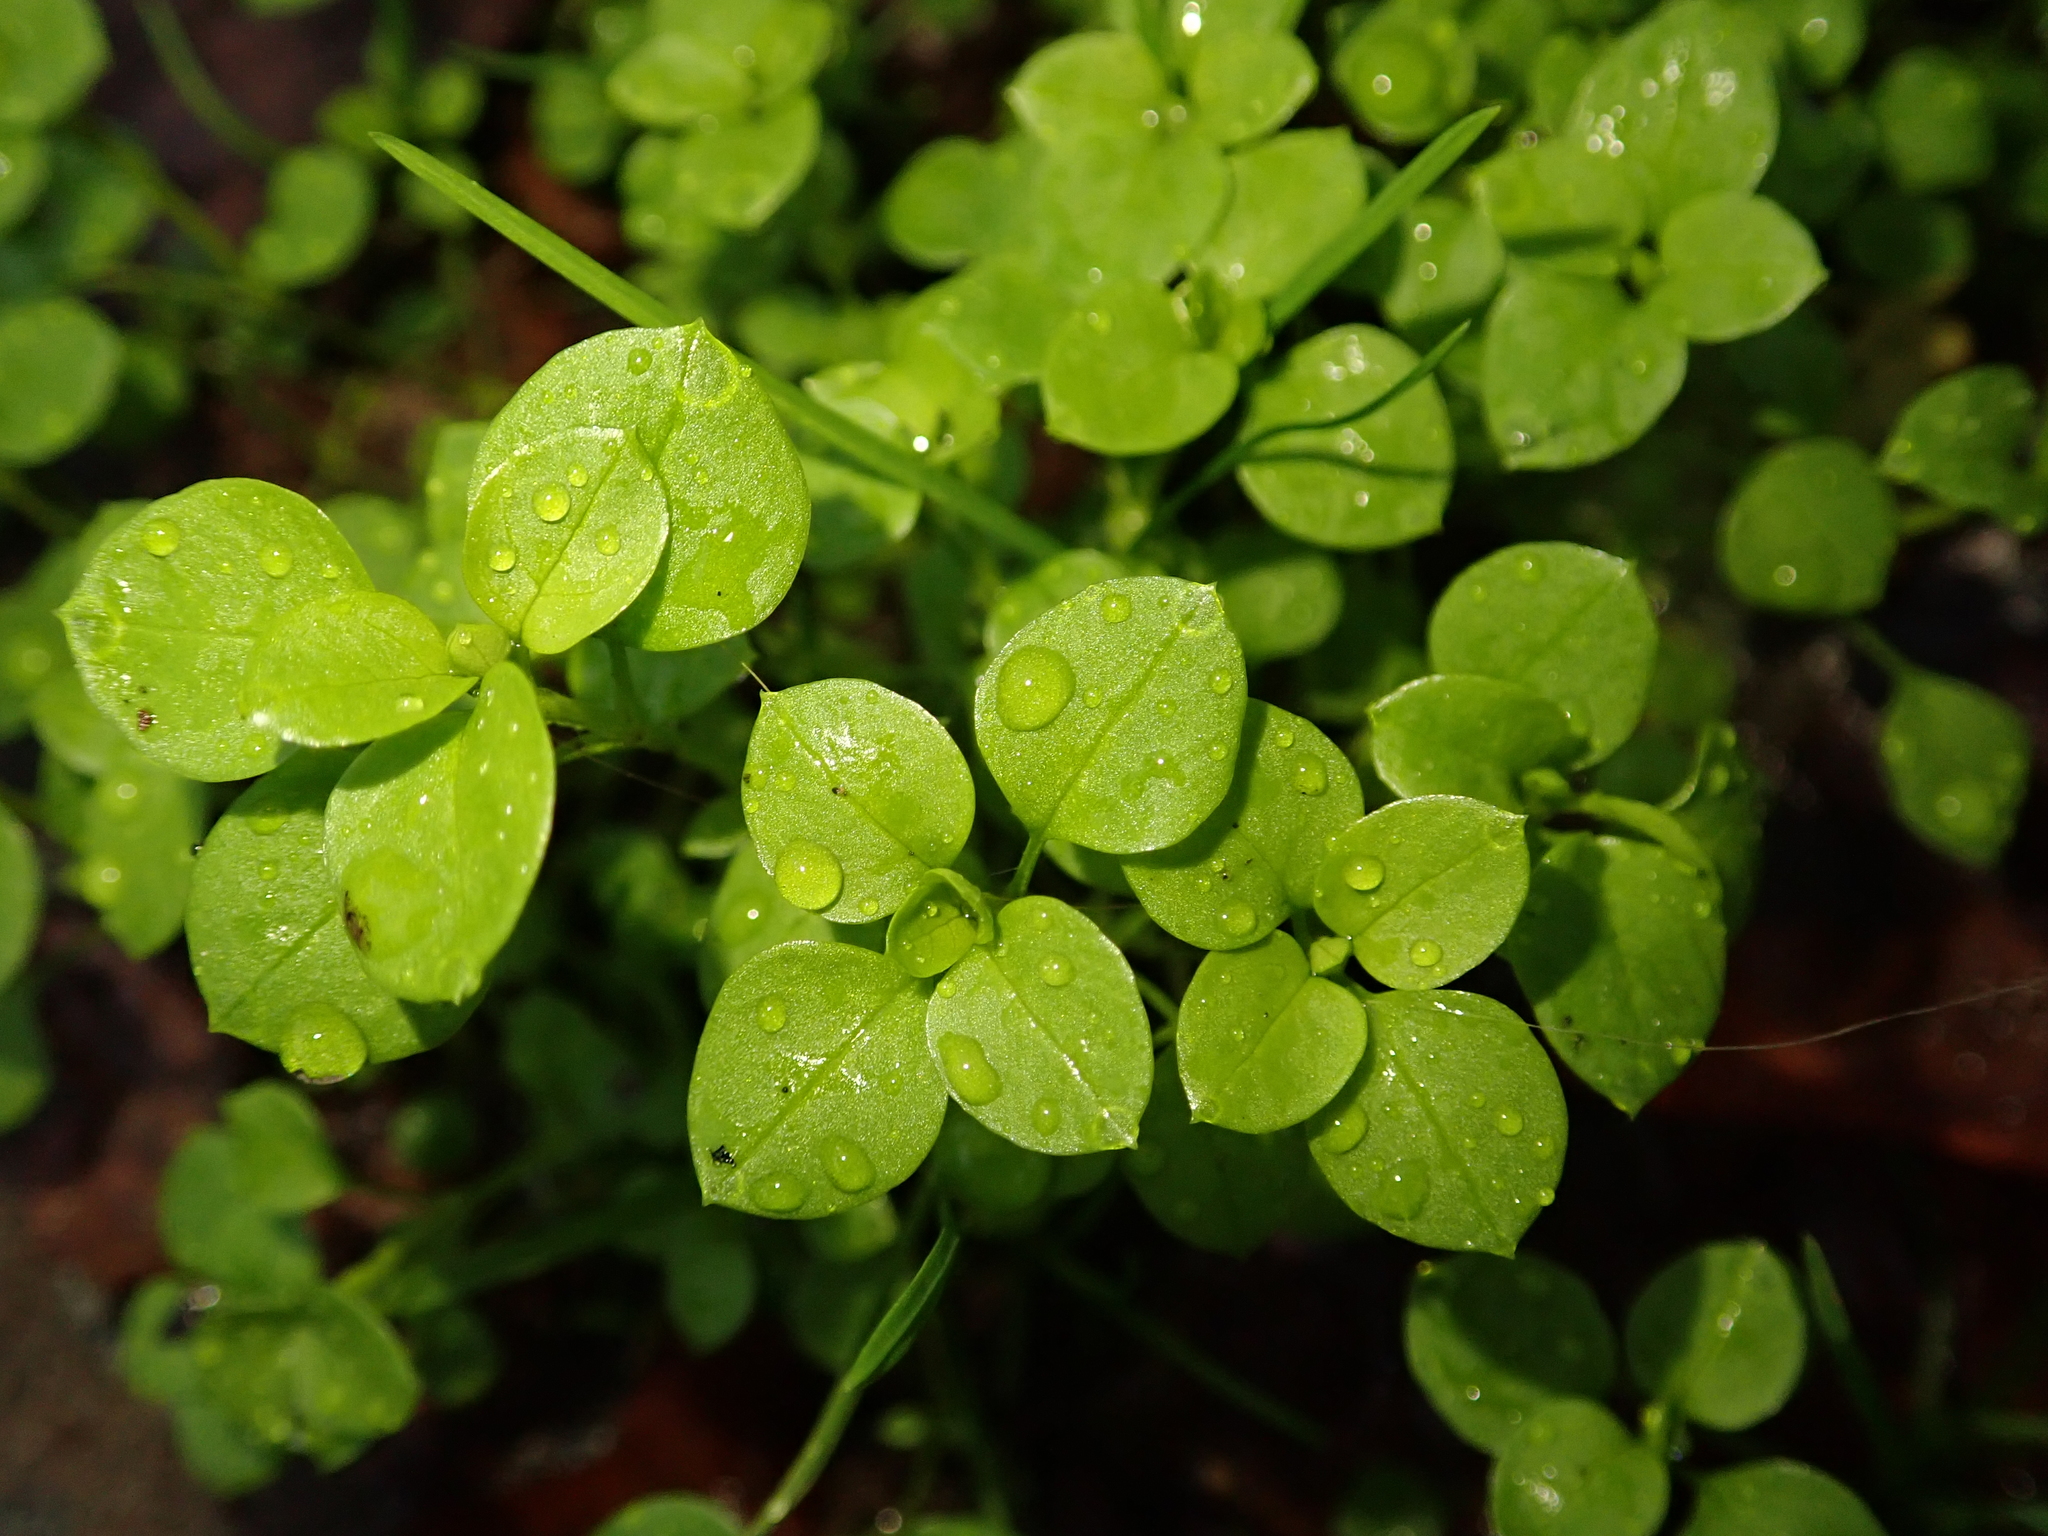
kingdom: Plantae
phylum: Tracheophyta
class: Magnoliopsida
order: Caryophyllales
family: Caryophyllaceae
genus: Stellaria
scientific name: Stellaria media
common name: Common chickweed
